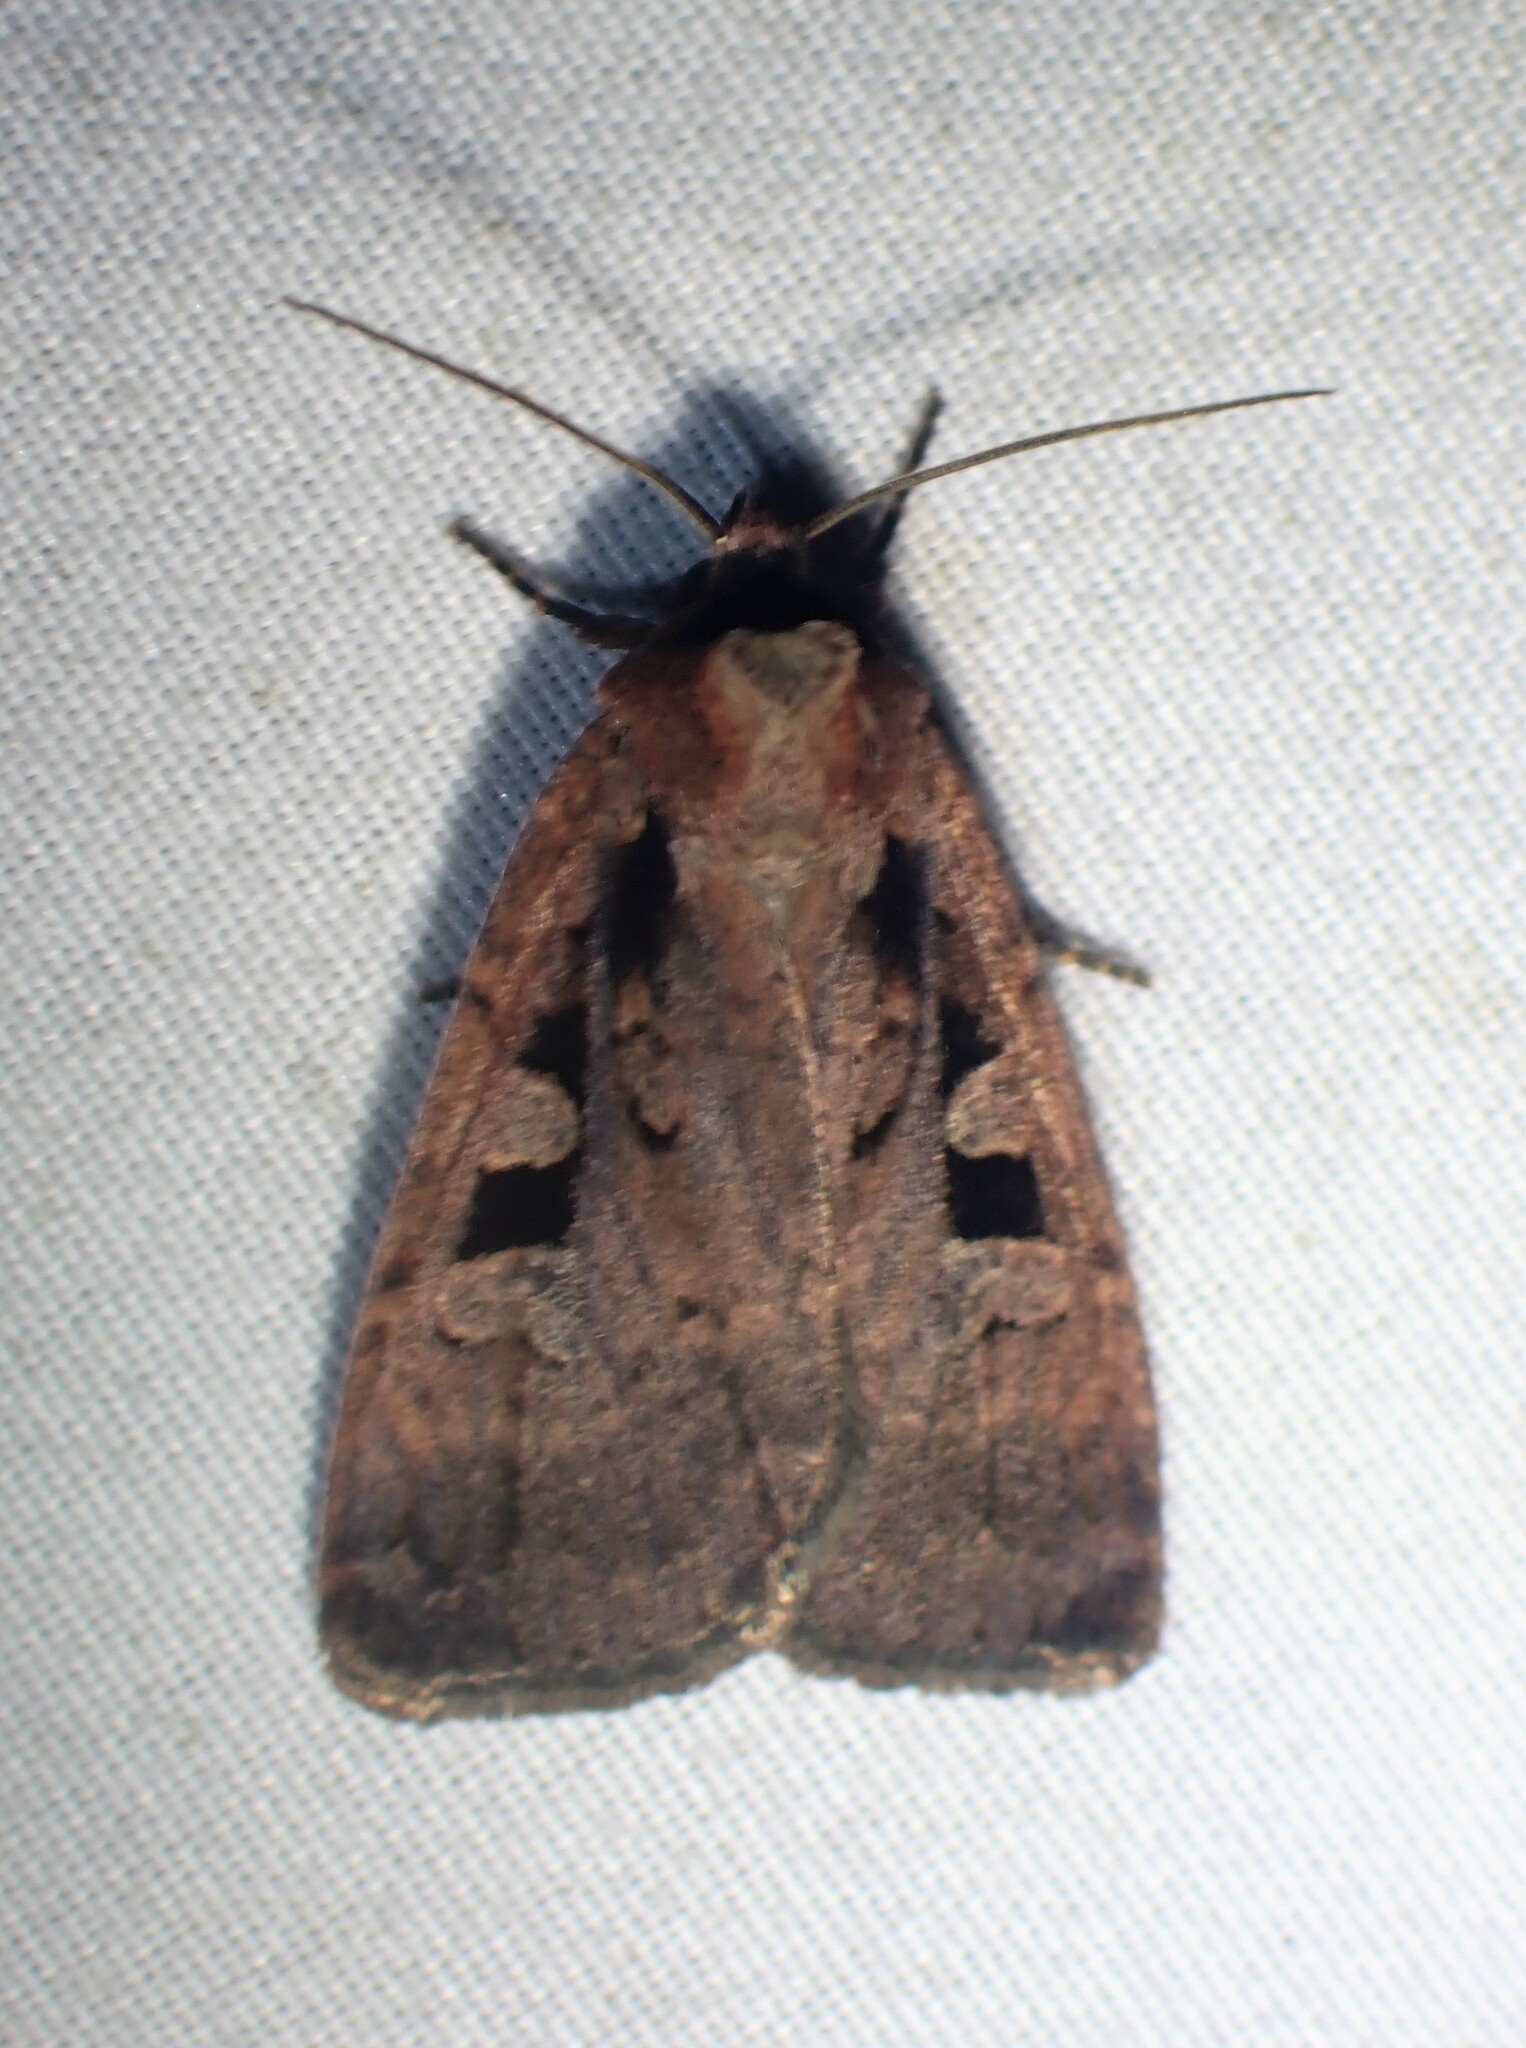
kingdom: Animalia
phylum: Arthropoda
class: Insecta
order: Lepidoptera
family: Noctuidae
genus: Eueretagrotis
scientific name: Eueretagrotis perattentus
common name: Two-spot dart moth
